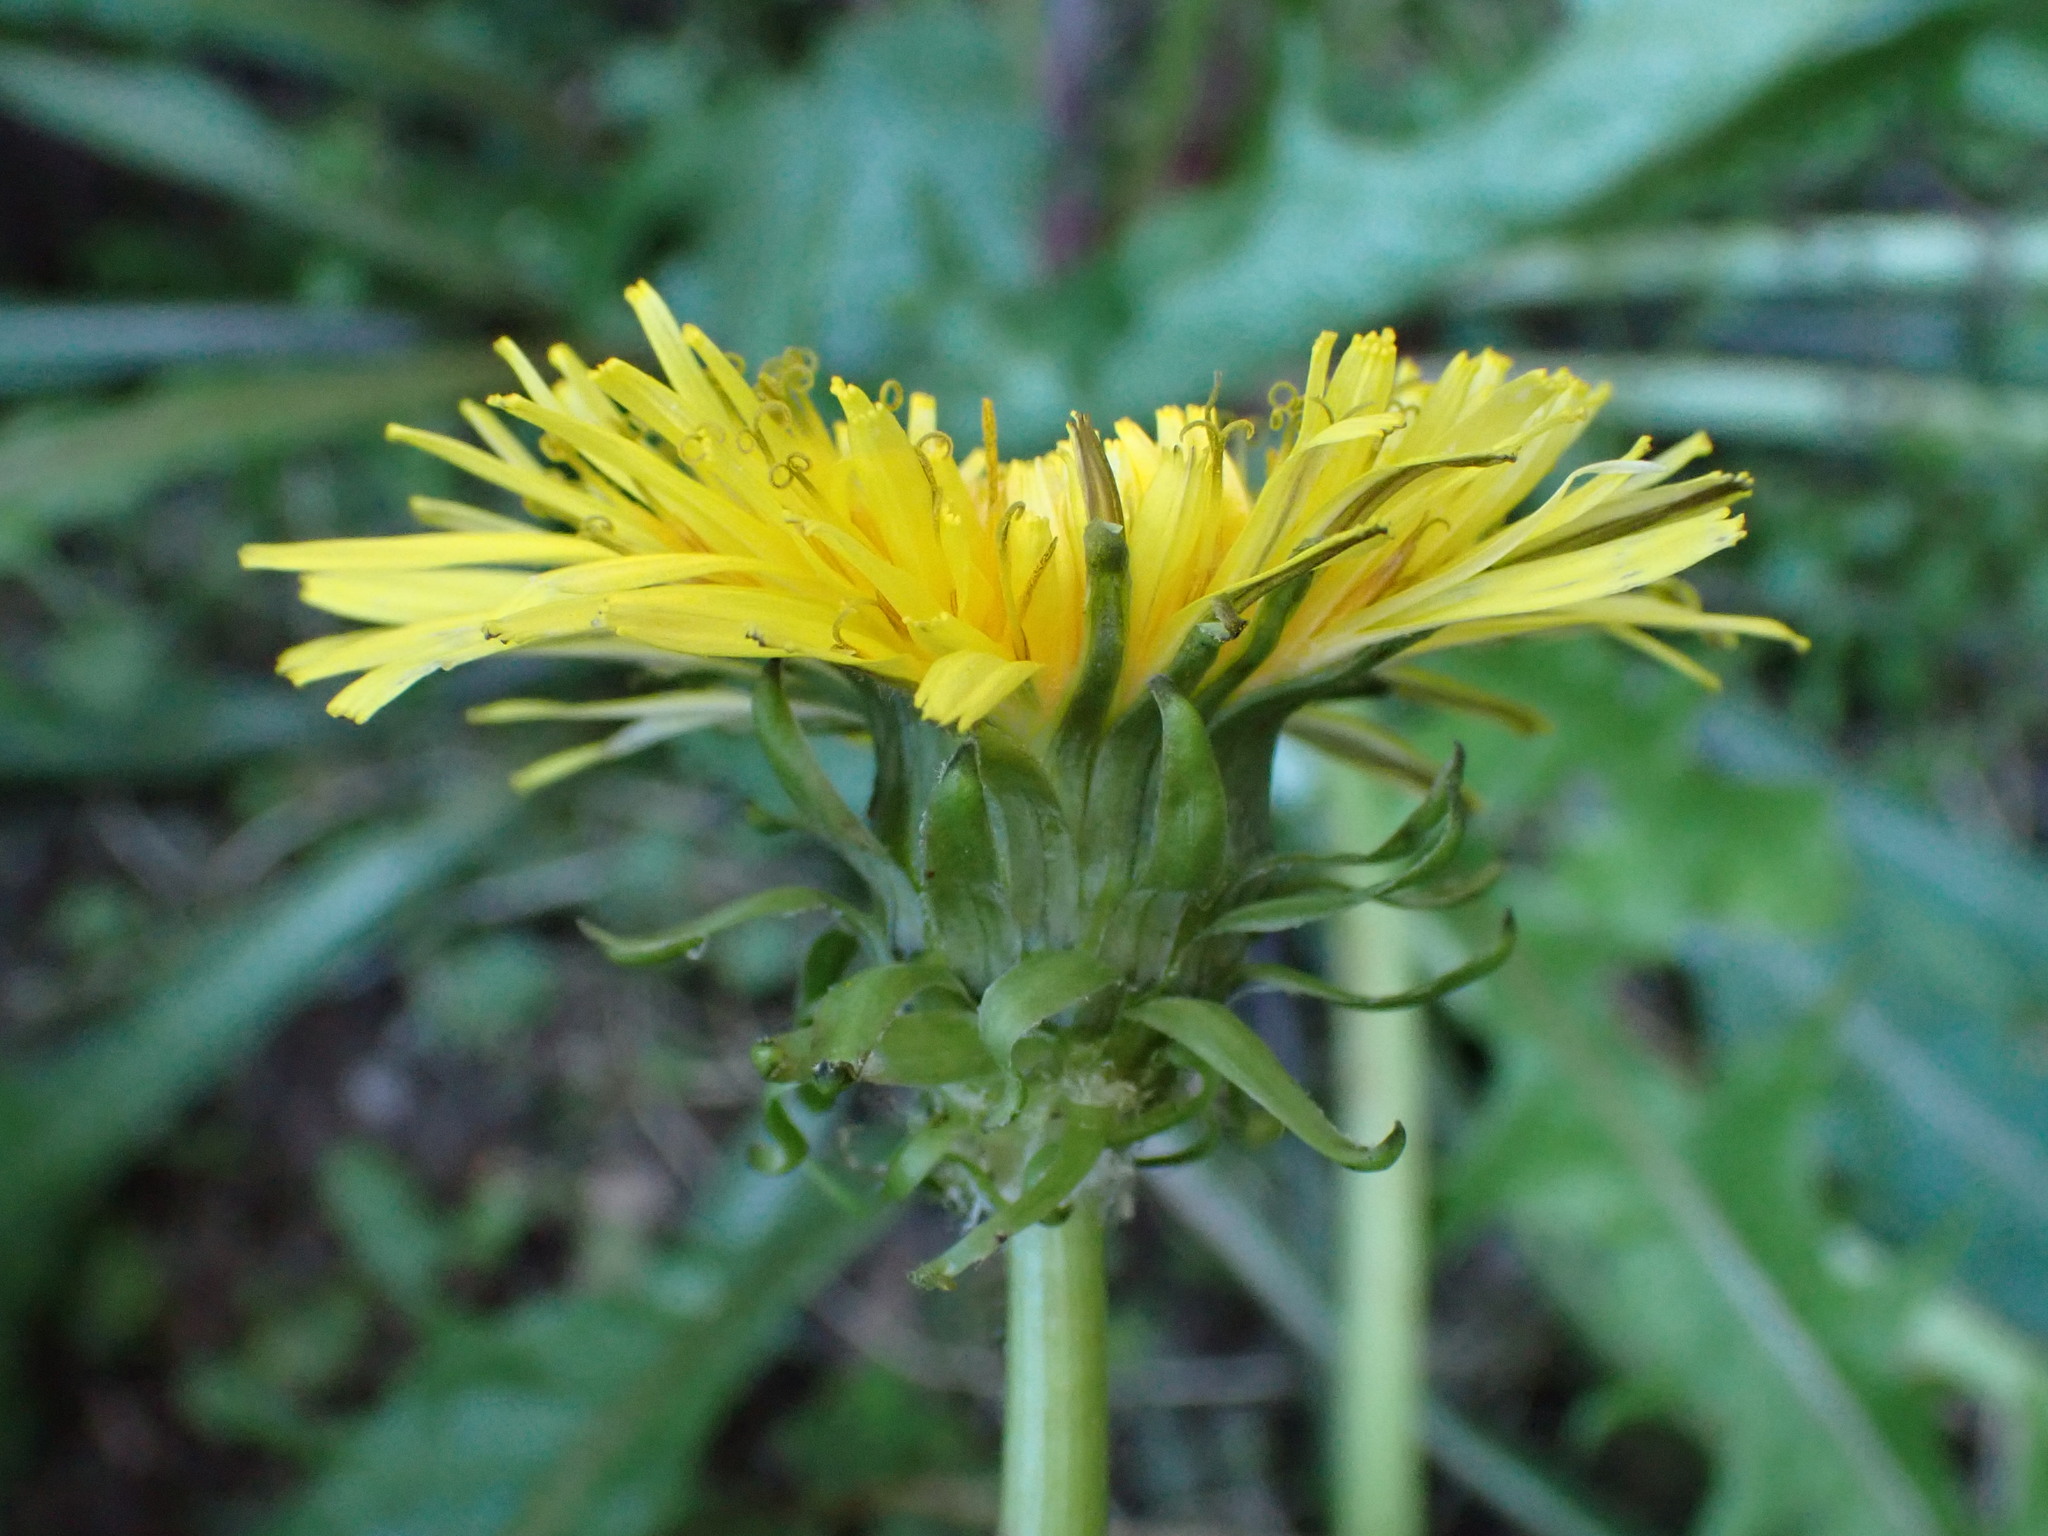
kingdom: Plantae
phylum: Tracheophyta
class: Magnoliopsida
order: Asterales
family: Asteraceae
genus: Taraxacum
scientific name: Taraxacum officinale
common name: Common dandelion
